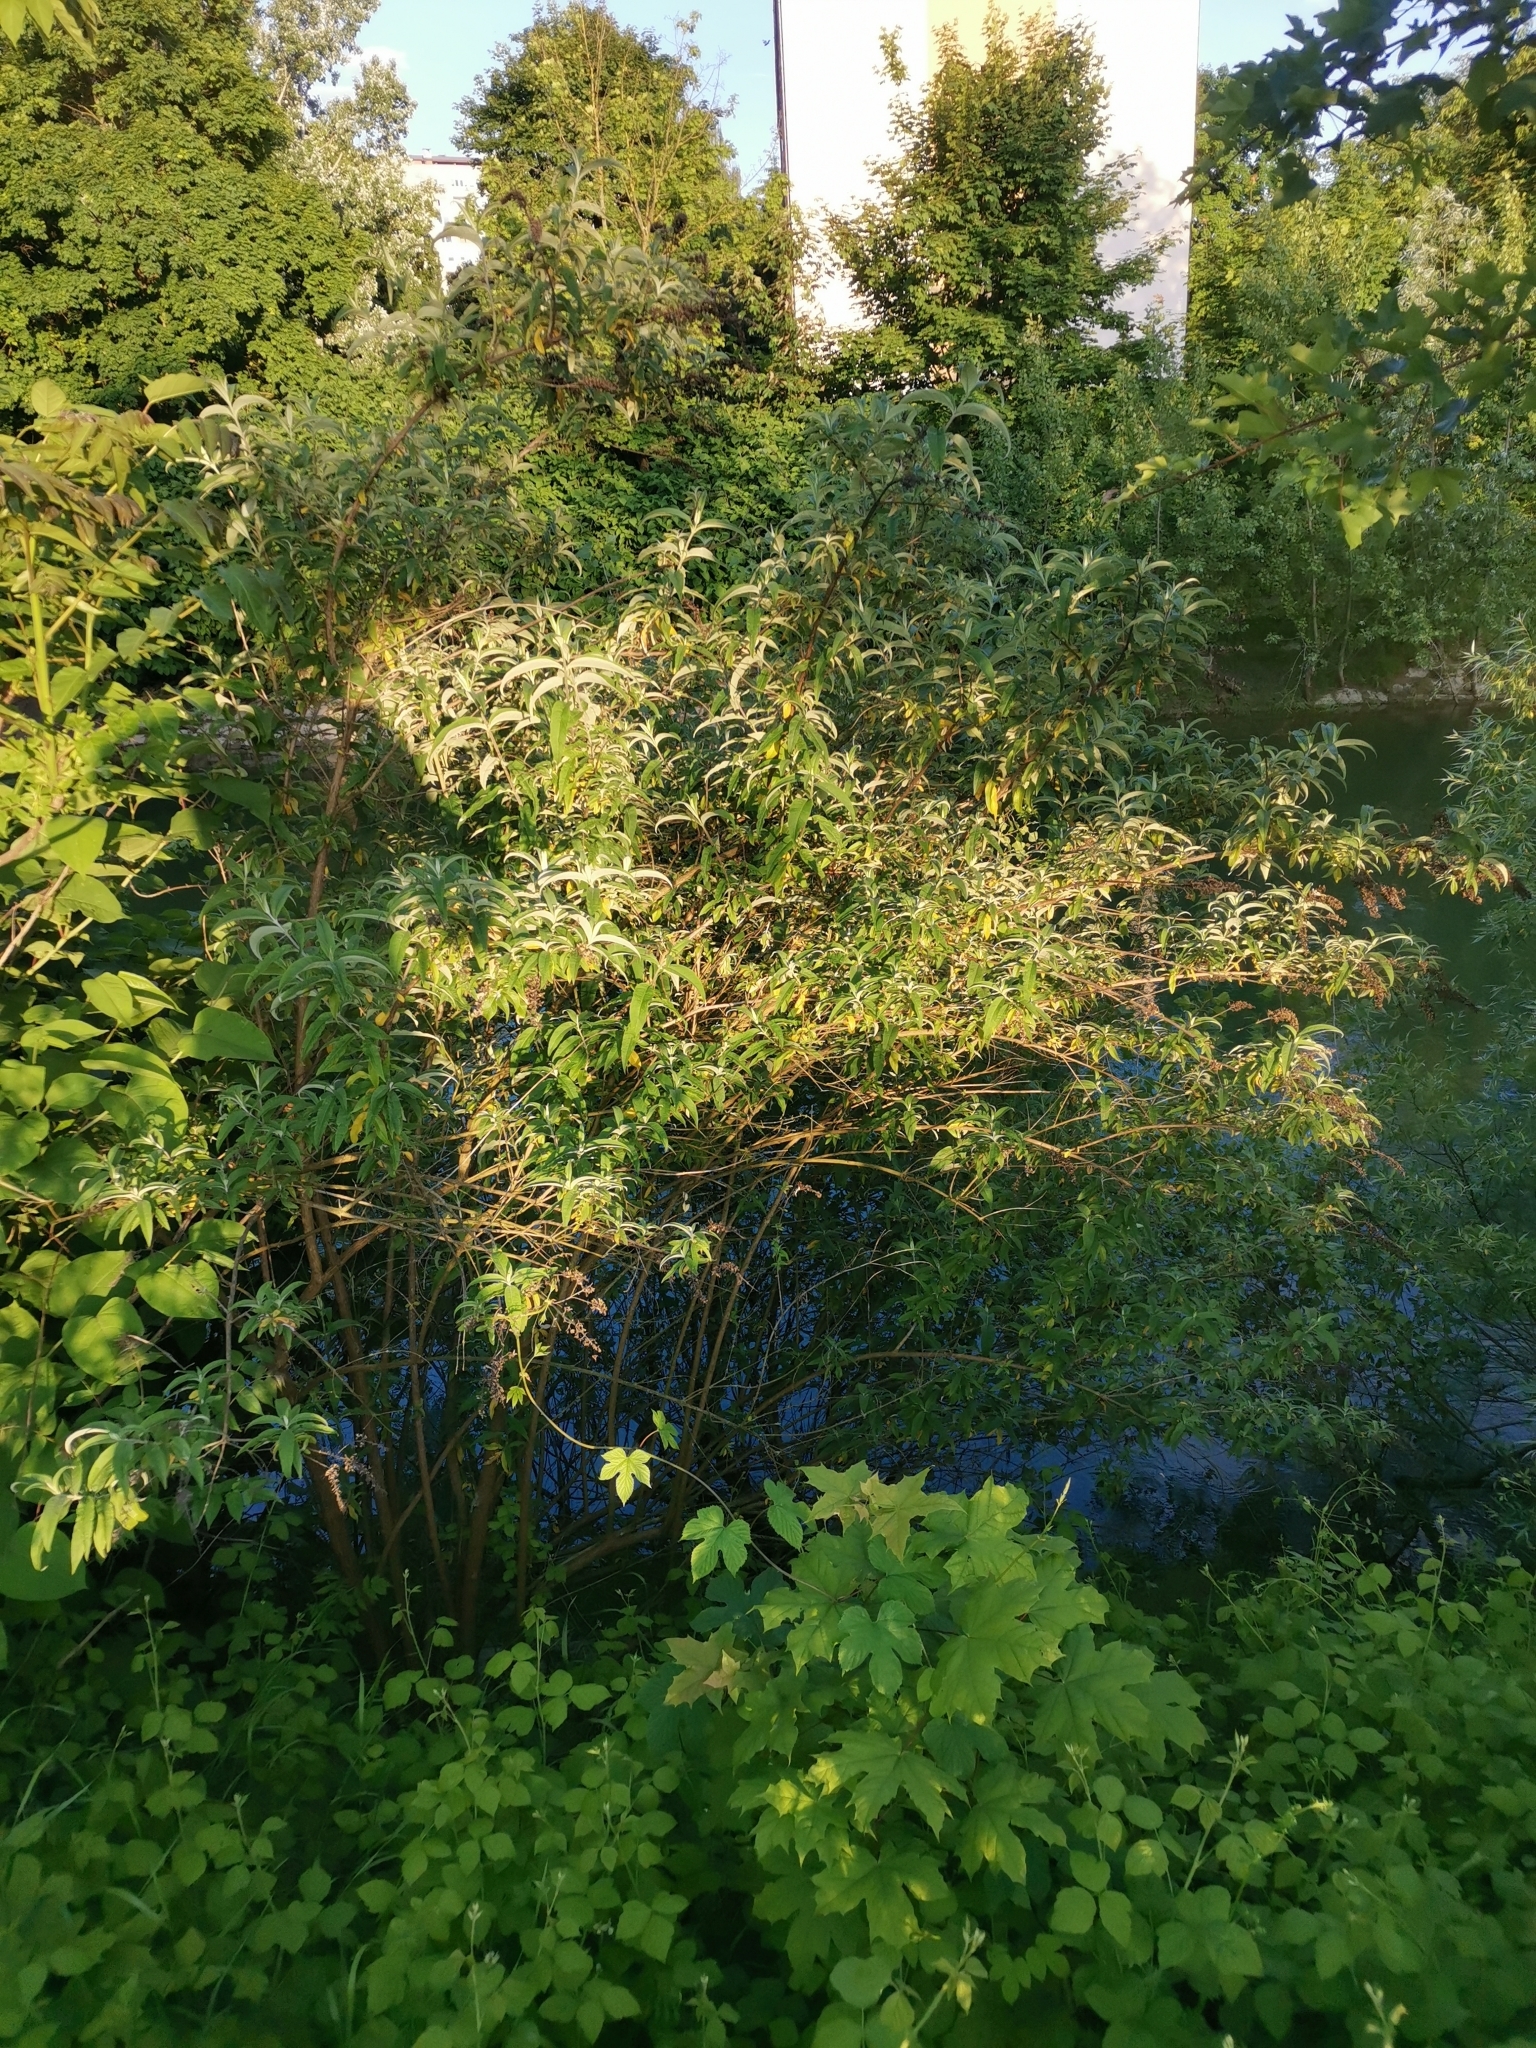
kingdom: Plantae
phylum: Tracheophyta
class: Magnoliopsida
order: Lamiales
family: Scrophulariaceae
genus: Buddleja
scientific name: Buddleja davidii
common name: Butterfly-bush
